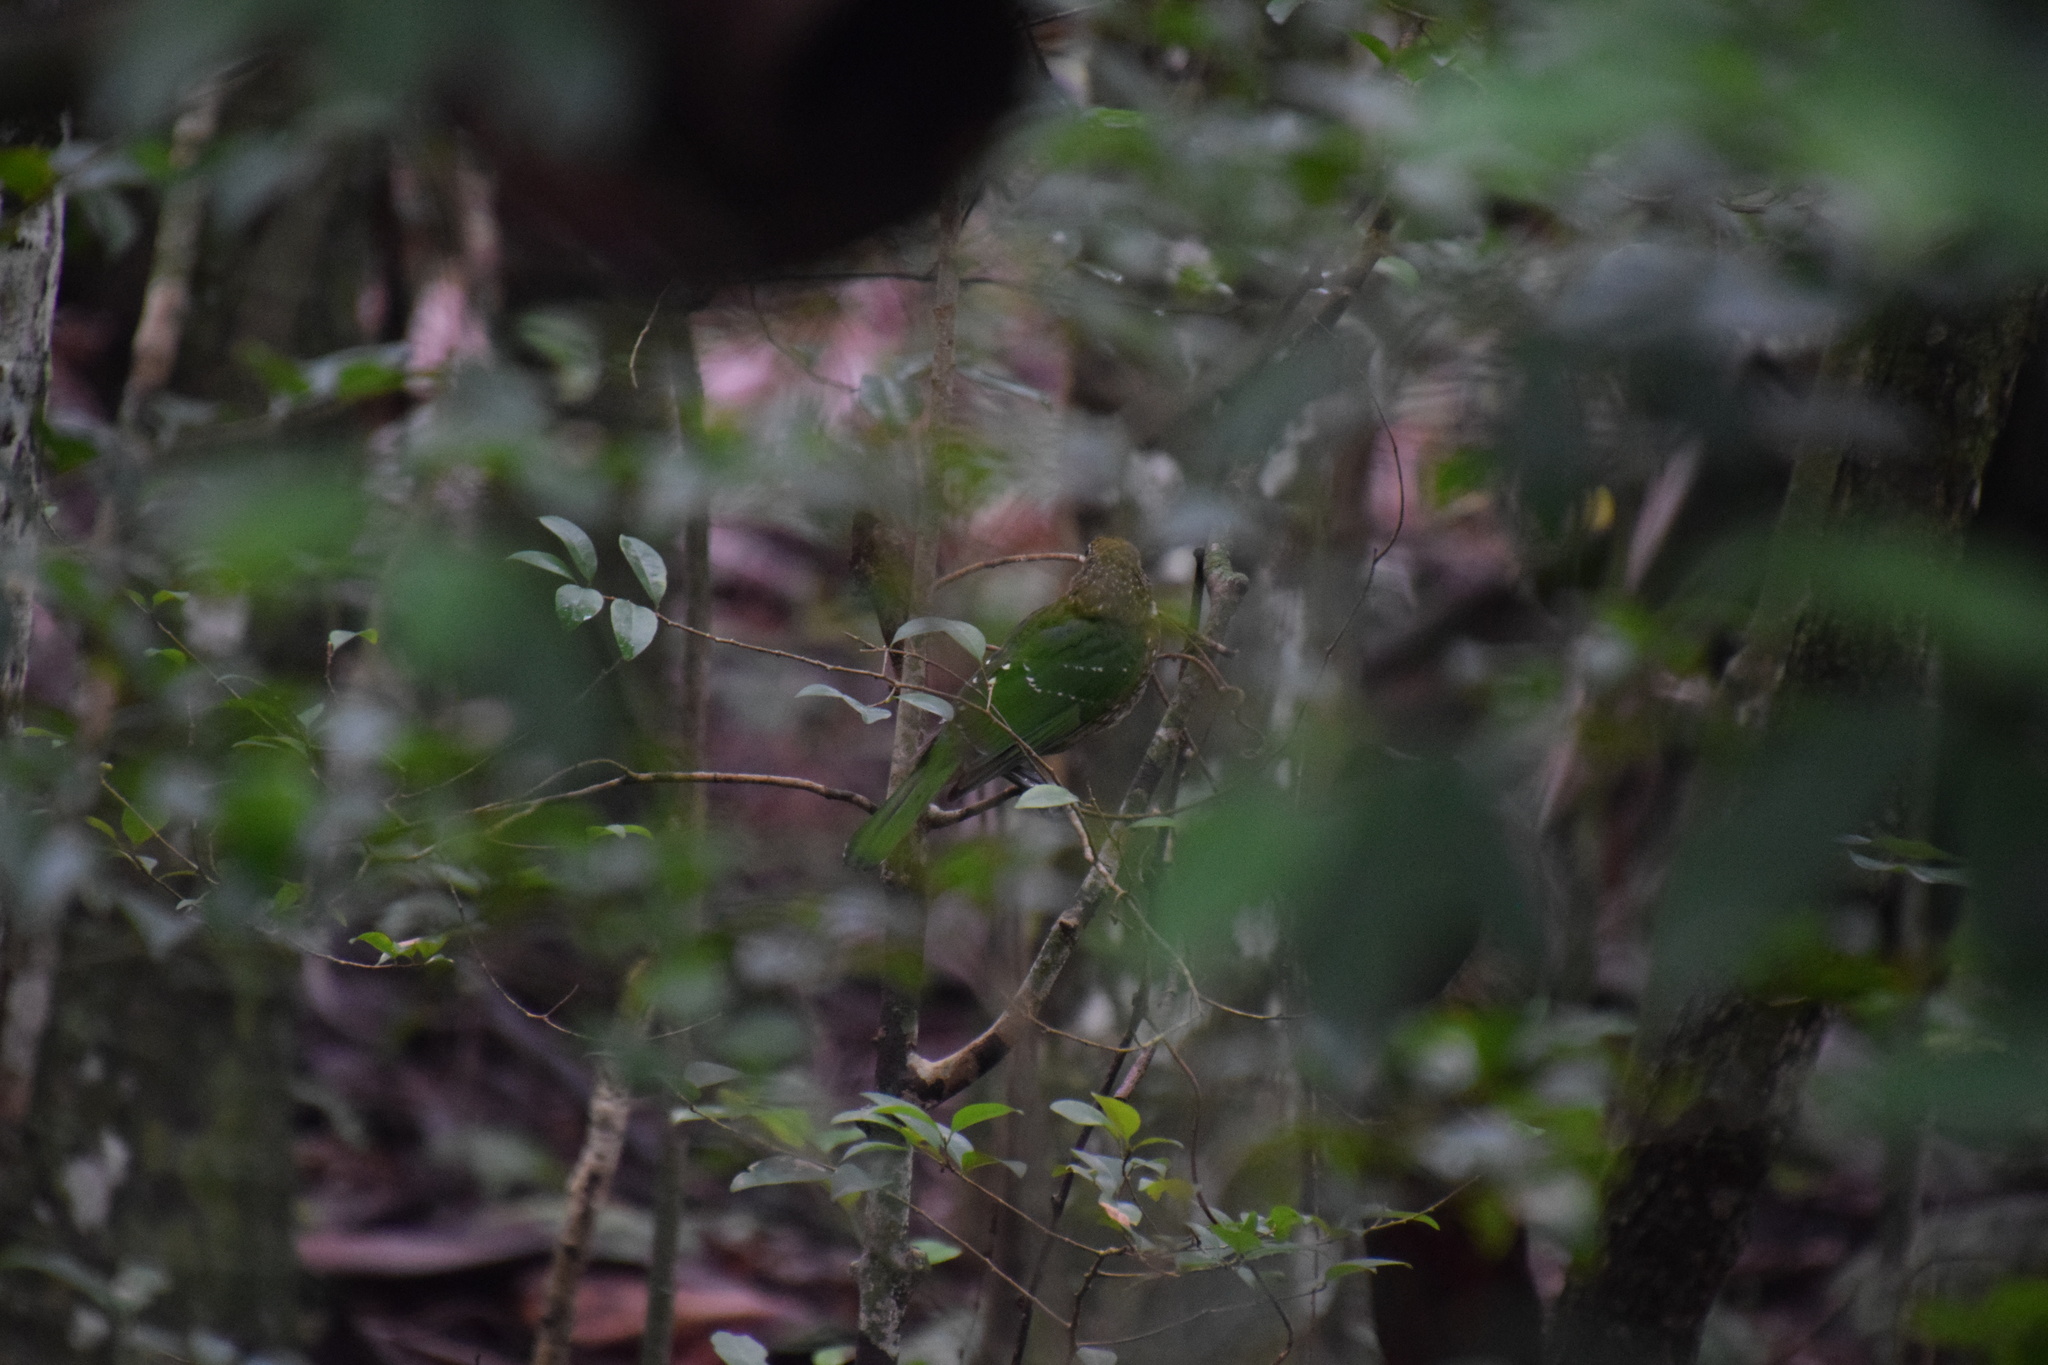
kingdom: Animalia
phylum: Chordata
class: Aves
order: Passeriformes
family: Ptilonorhynchidae
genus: Ailuroedus
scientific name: Ailuroedus crassirostris
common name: Green catbird
